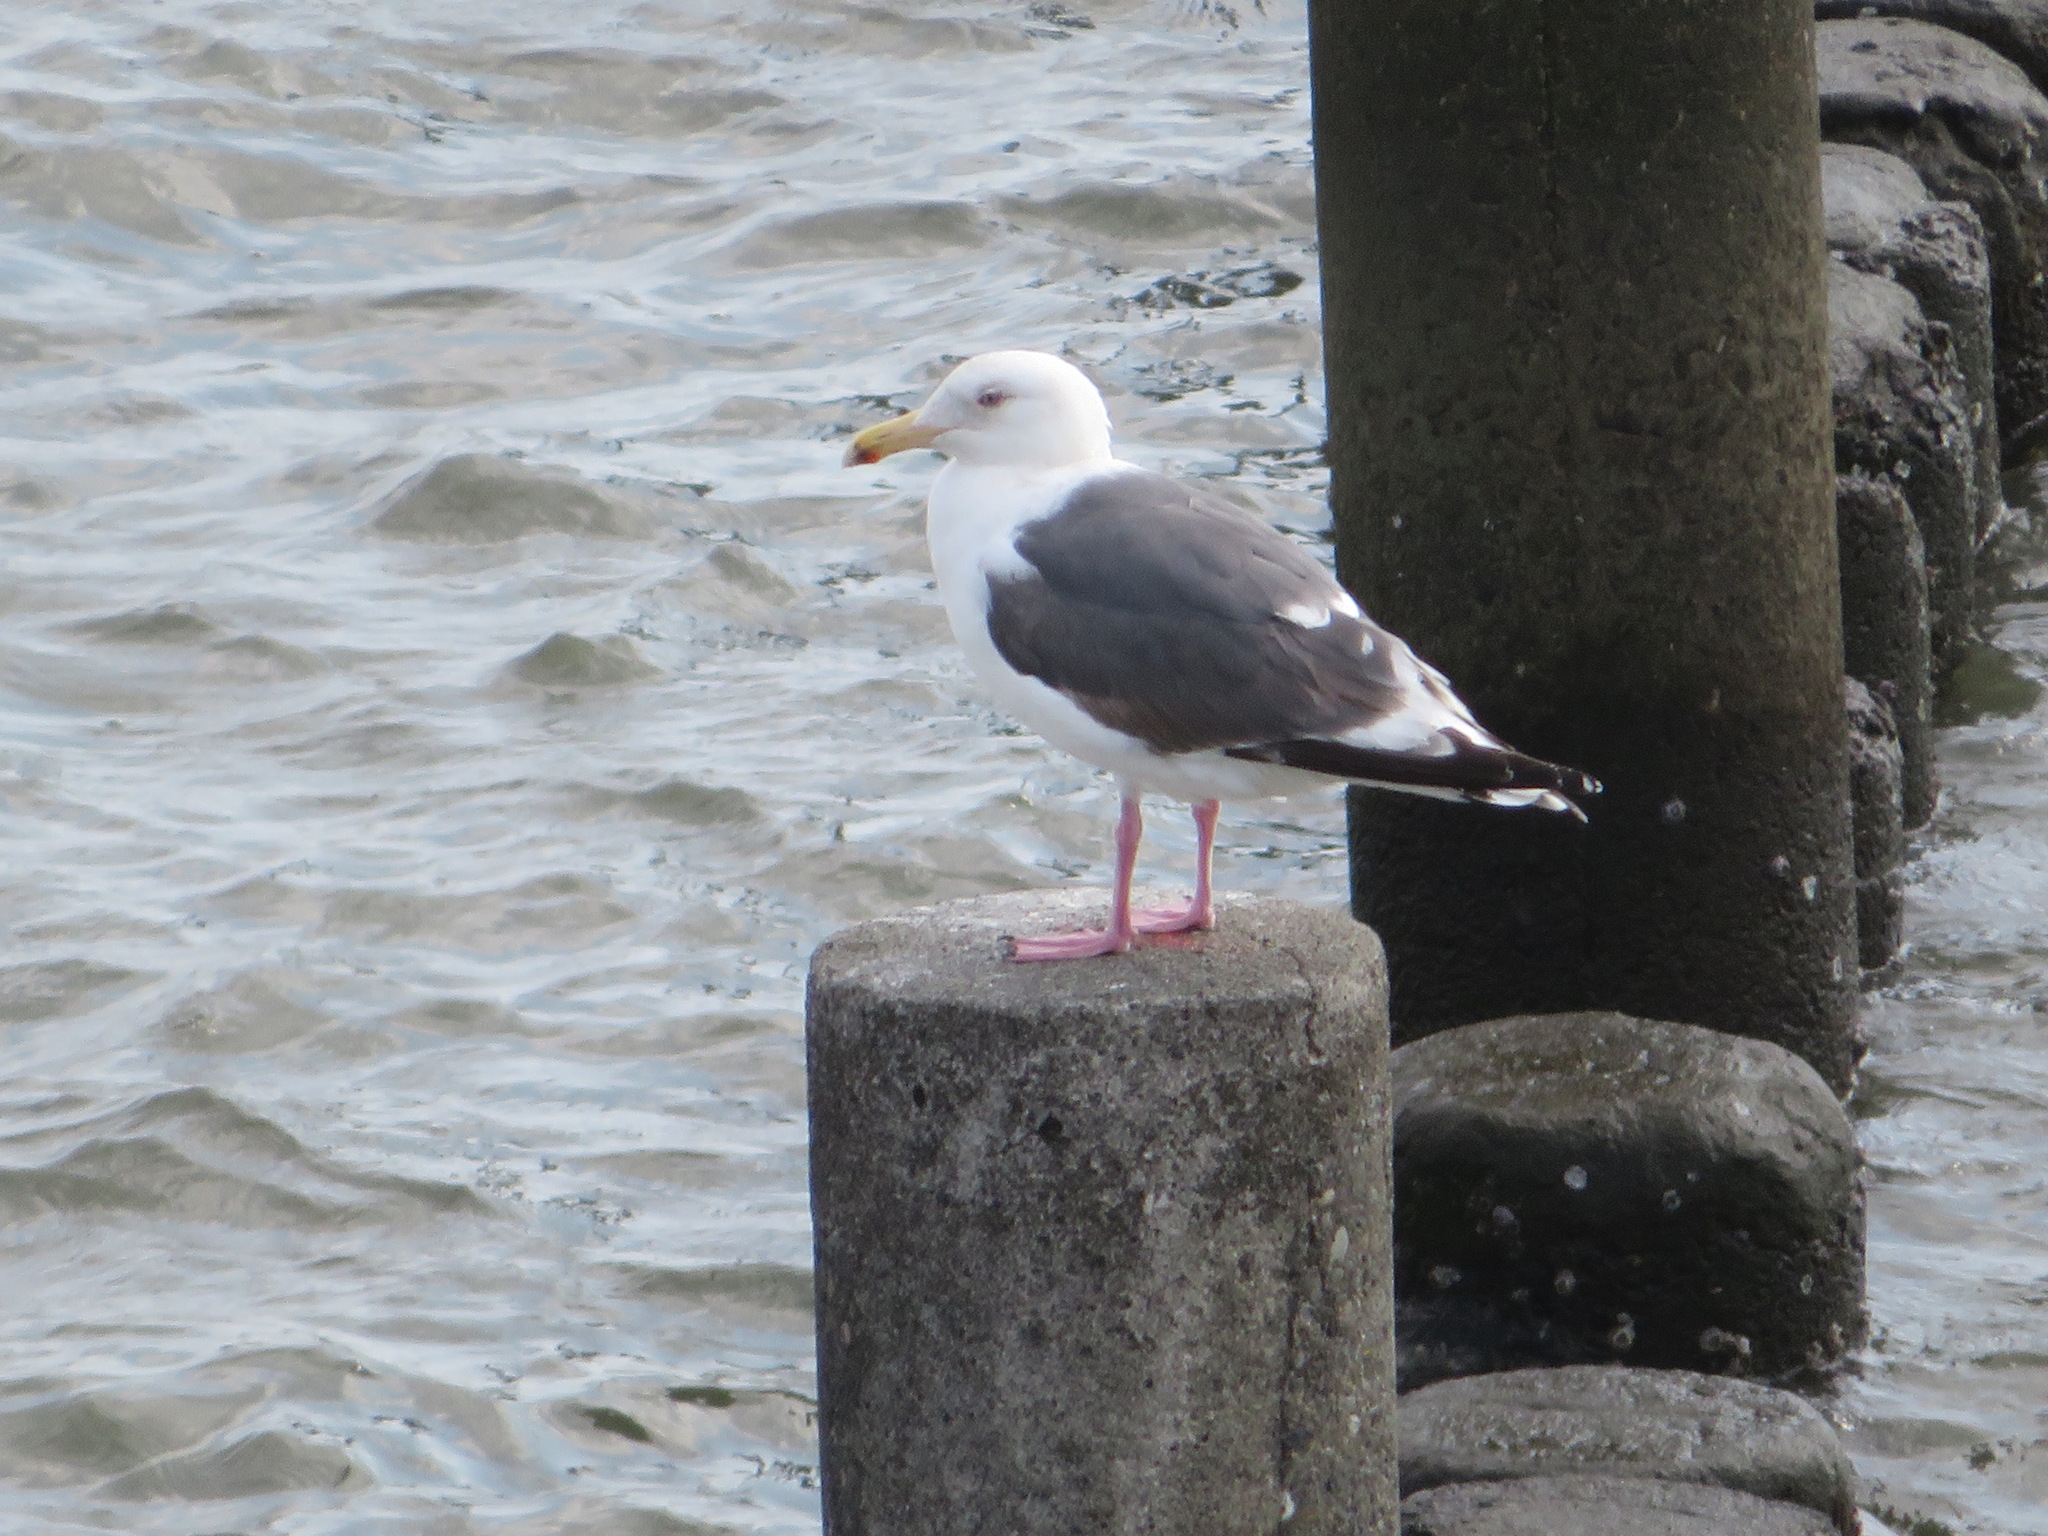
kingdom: Animalia
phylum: Chordata
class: Aves
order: Charadriiformes
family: Laridae
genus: Larus
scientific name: Larus schistisagus
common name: Slaty-backed gull
